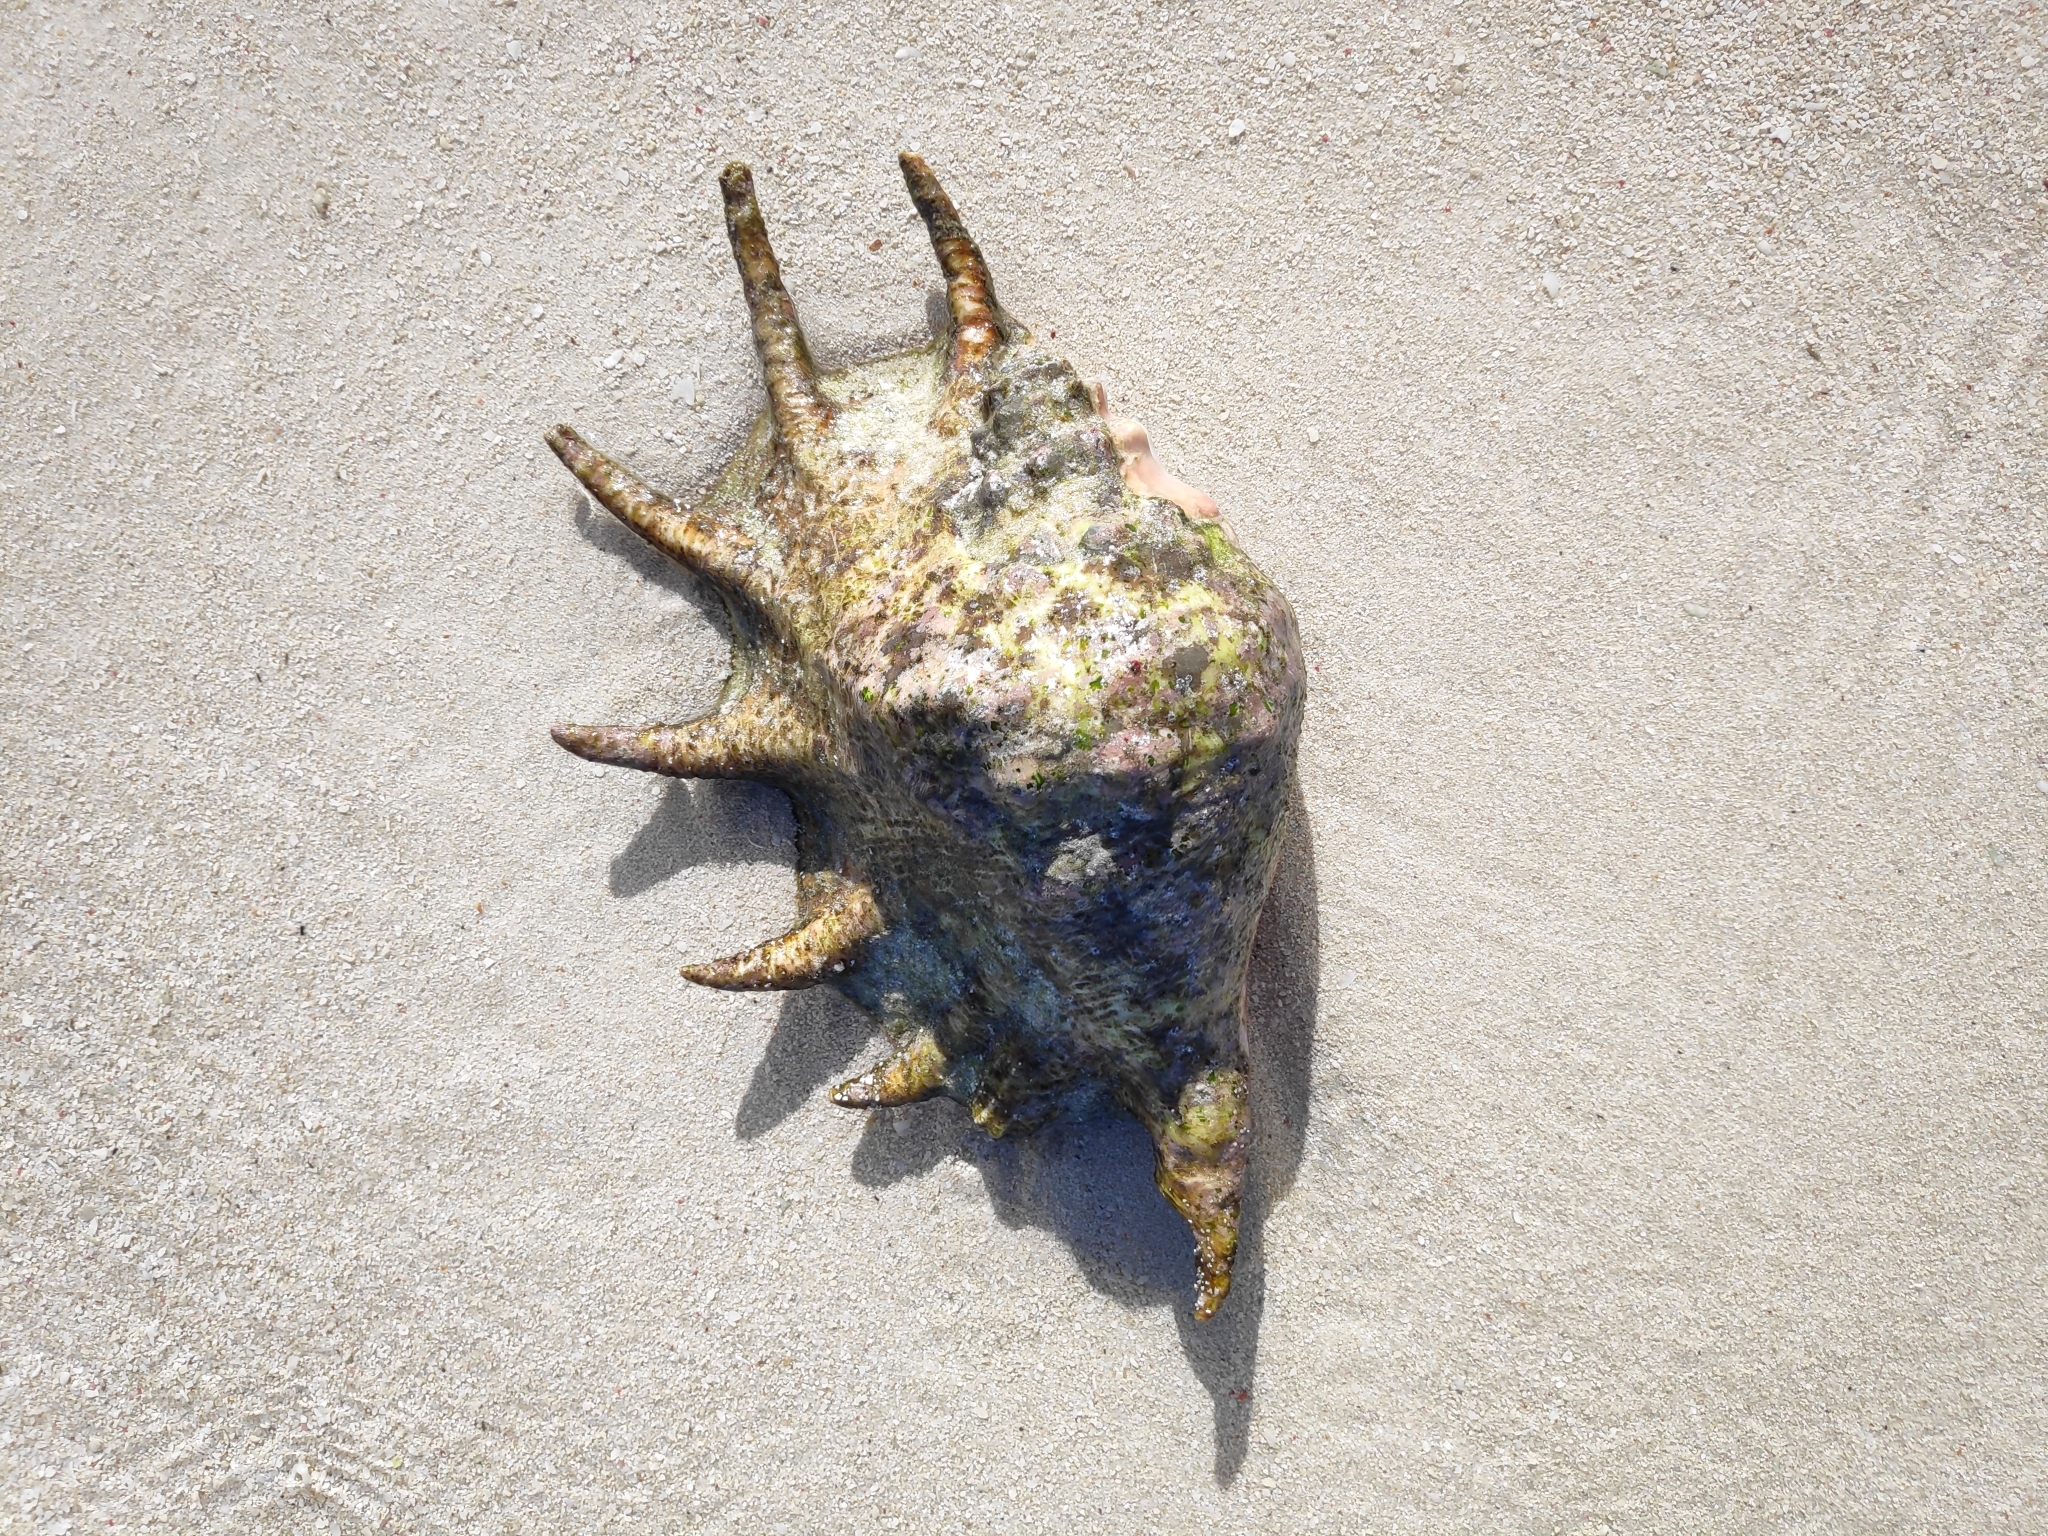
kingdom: Animalia
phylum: Mollusca
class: Gastropoda
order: Littorinimorpha
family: Strombidae
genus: Lambis
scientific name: Lambis truncata
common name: Giant spider conch
